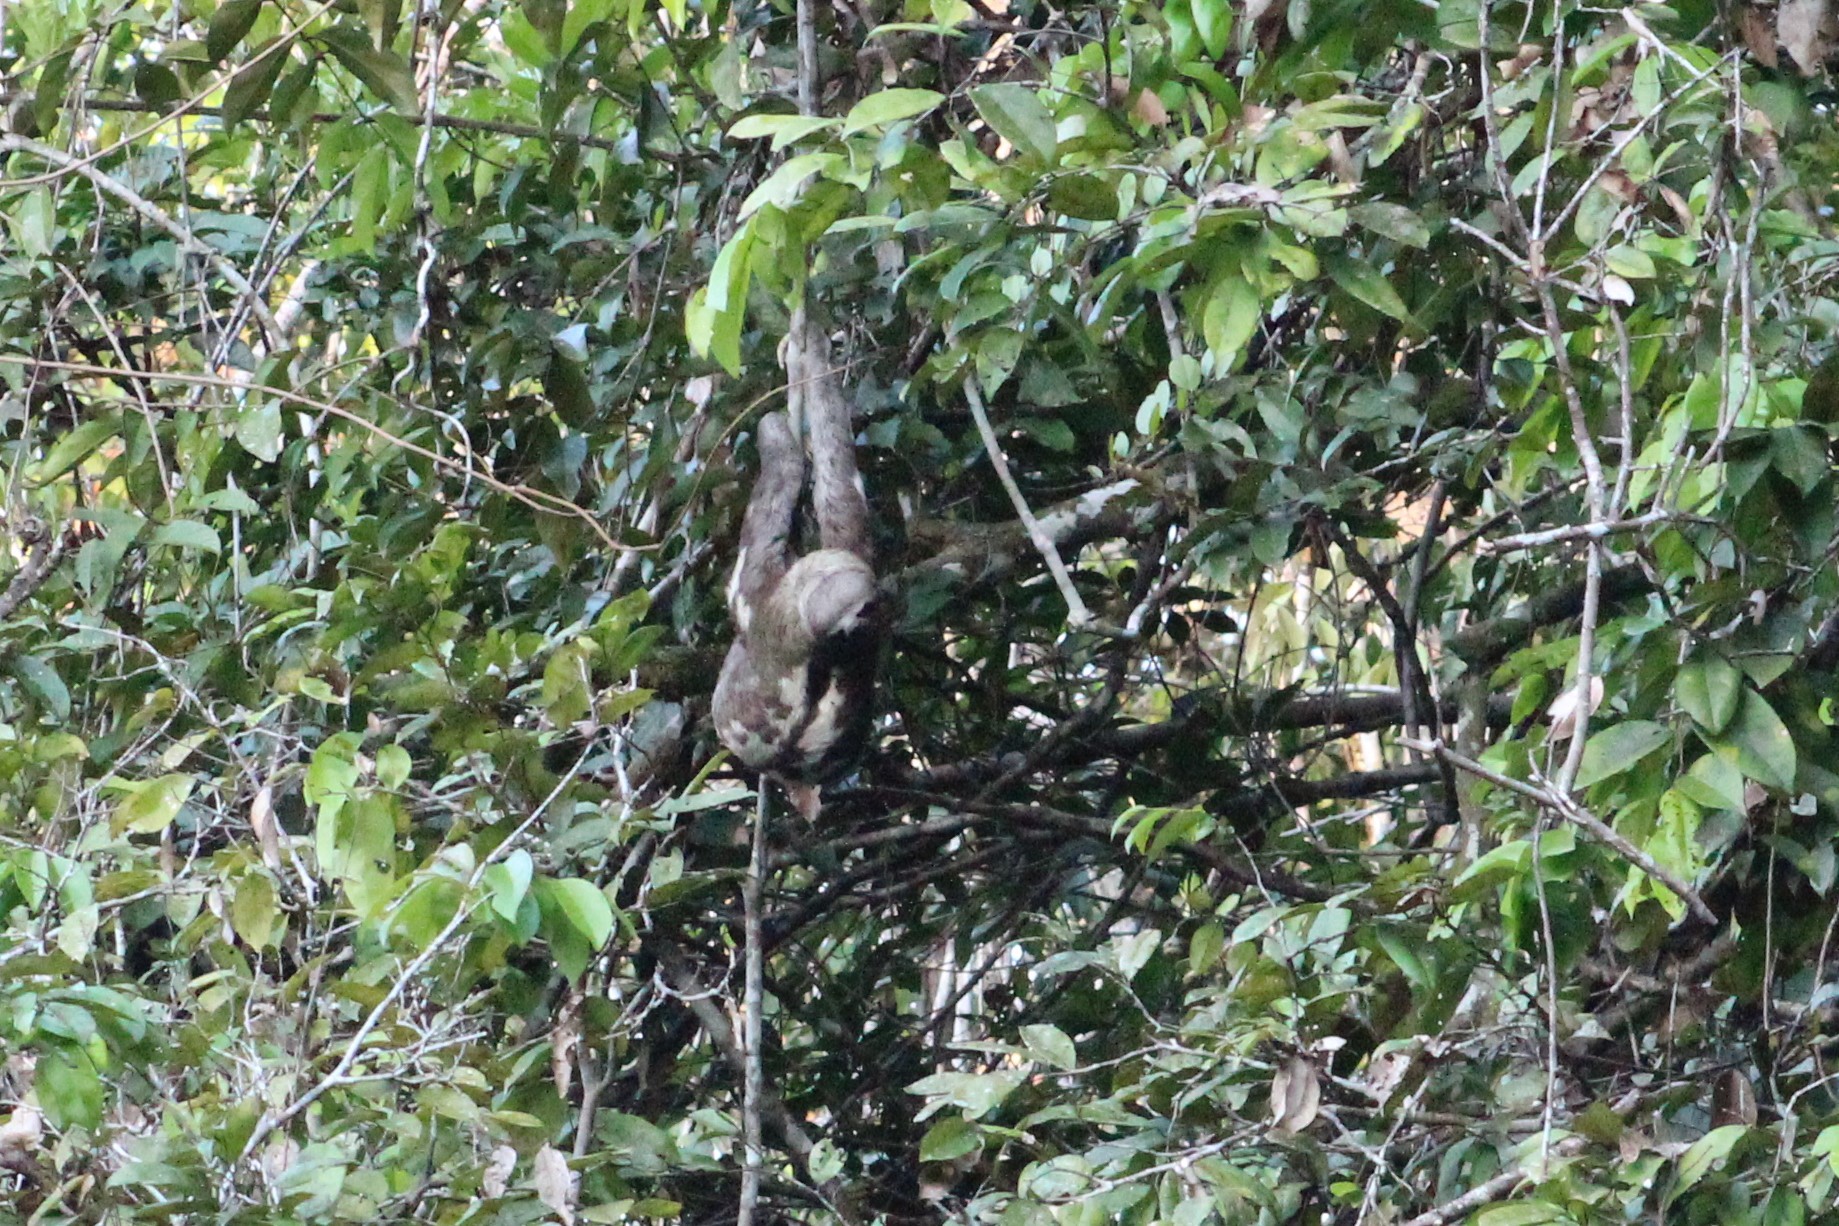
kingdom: Animalia
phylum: Chordata
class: Mammalia
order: Pilosa
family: Bradypodidae
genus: Bradypus
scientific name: Bradypus variegatus
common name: Brown-throated three-toed sloth
